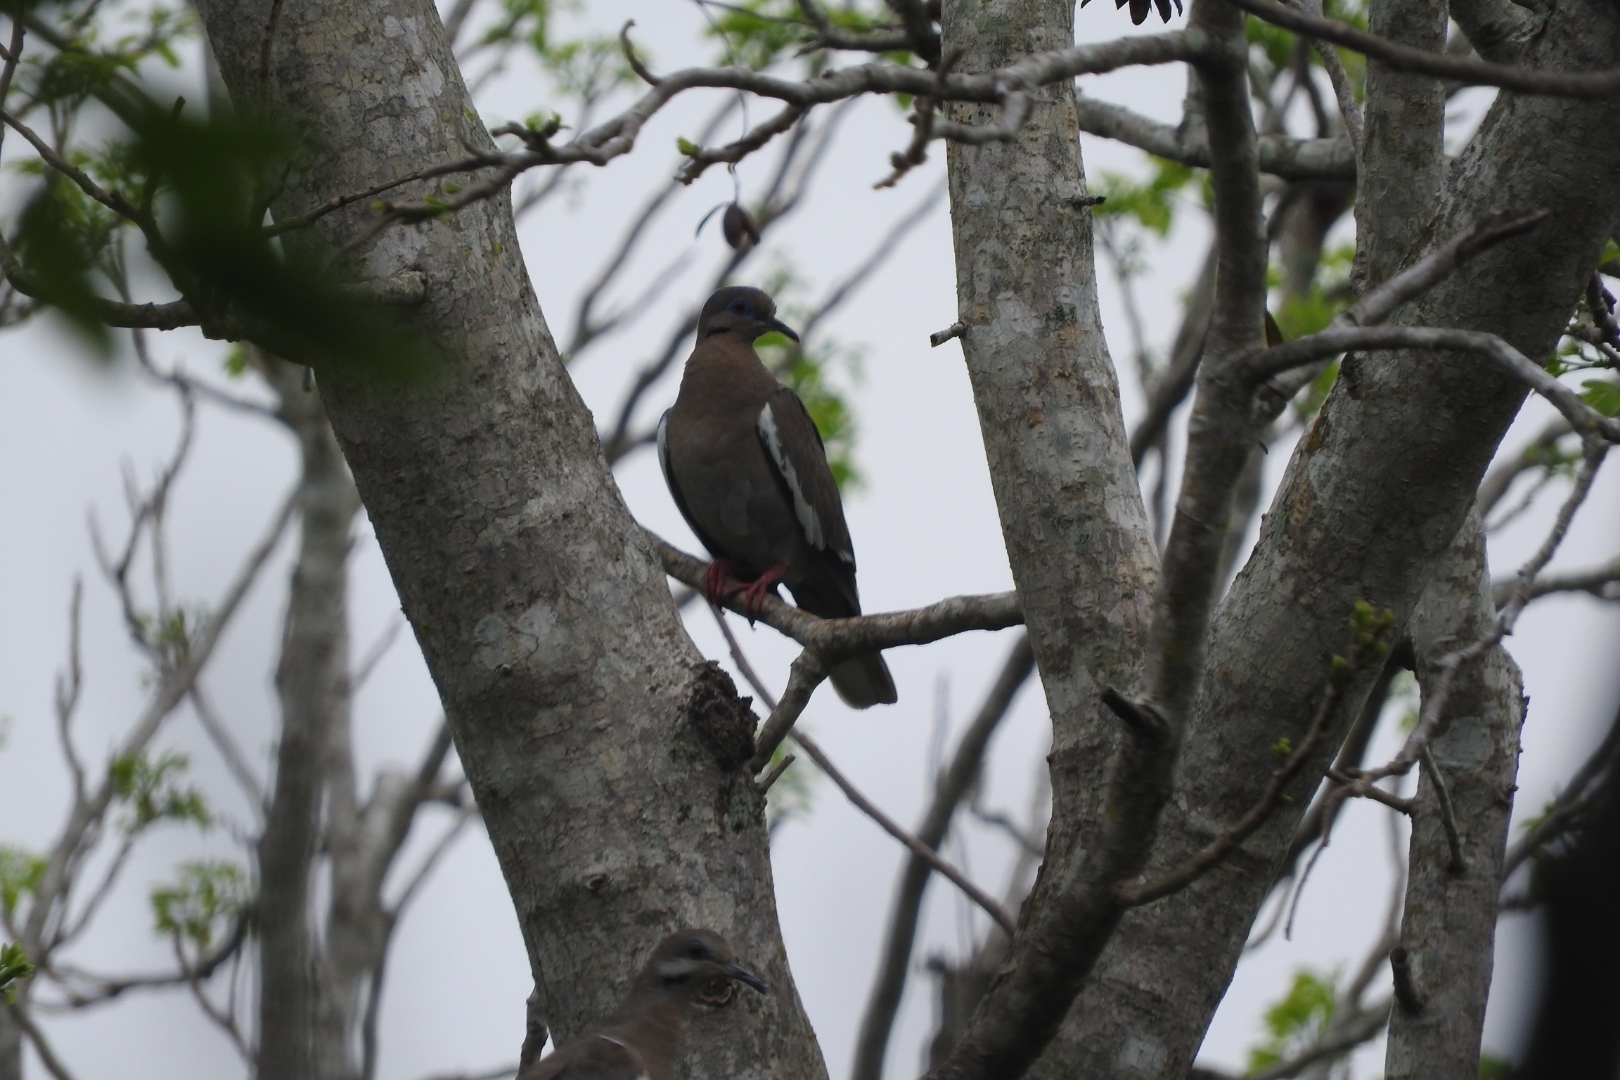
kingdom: Animalia
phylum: Chordata
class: Aves
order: Columbiformes
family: Columbidae
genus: Zenaida
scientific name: Zenaida asiatica
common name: White-winged dove
